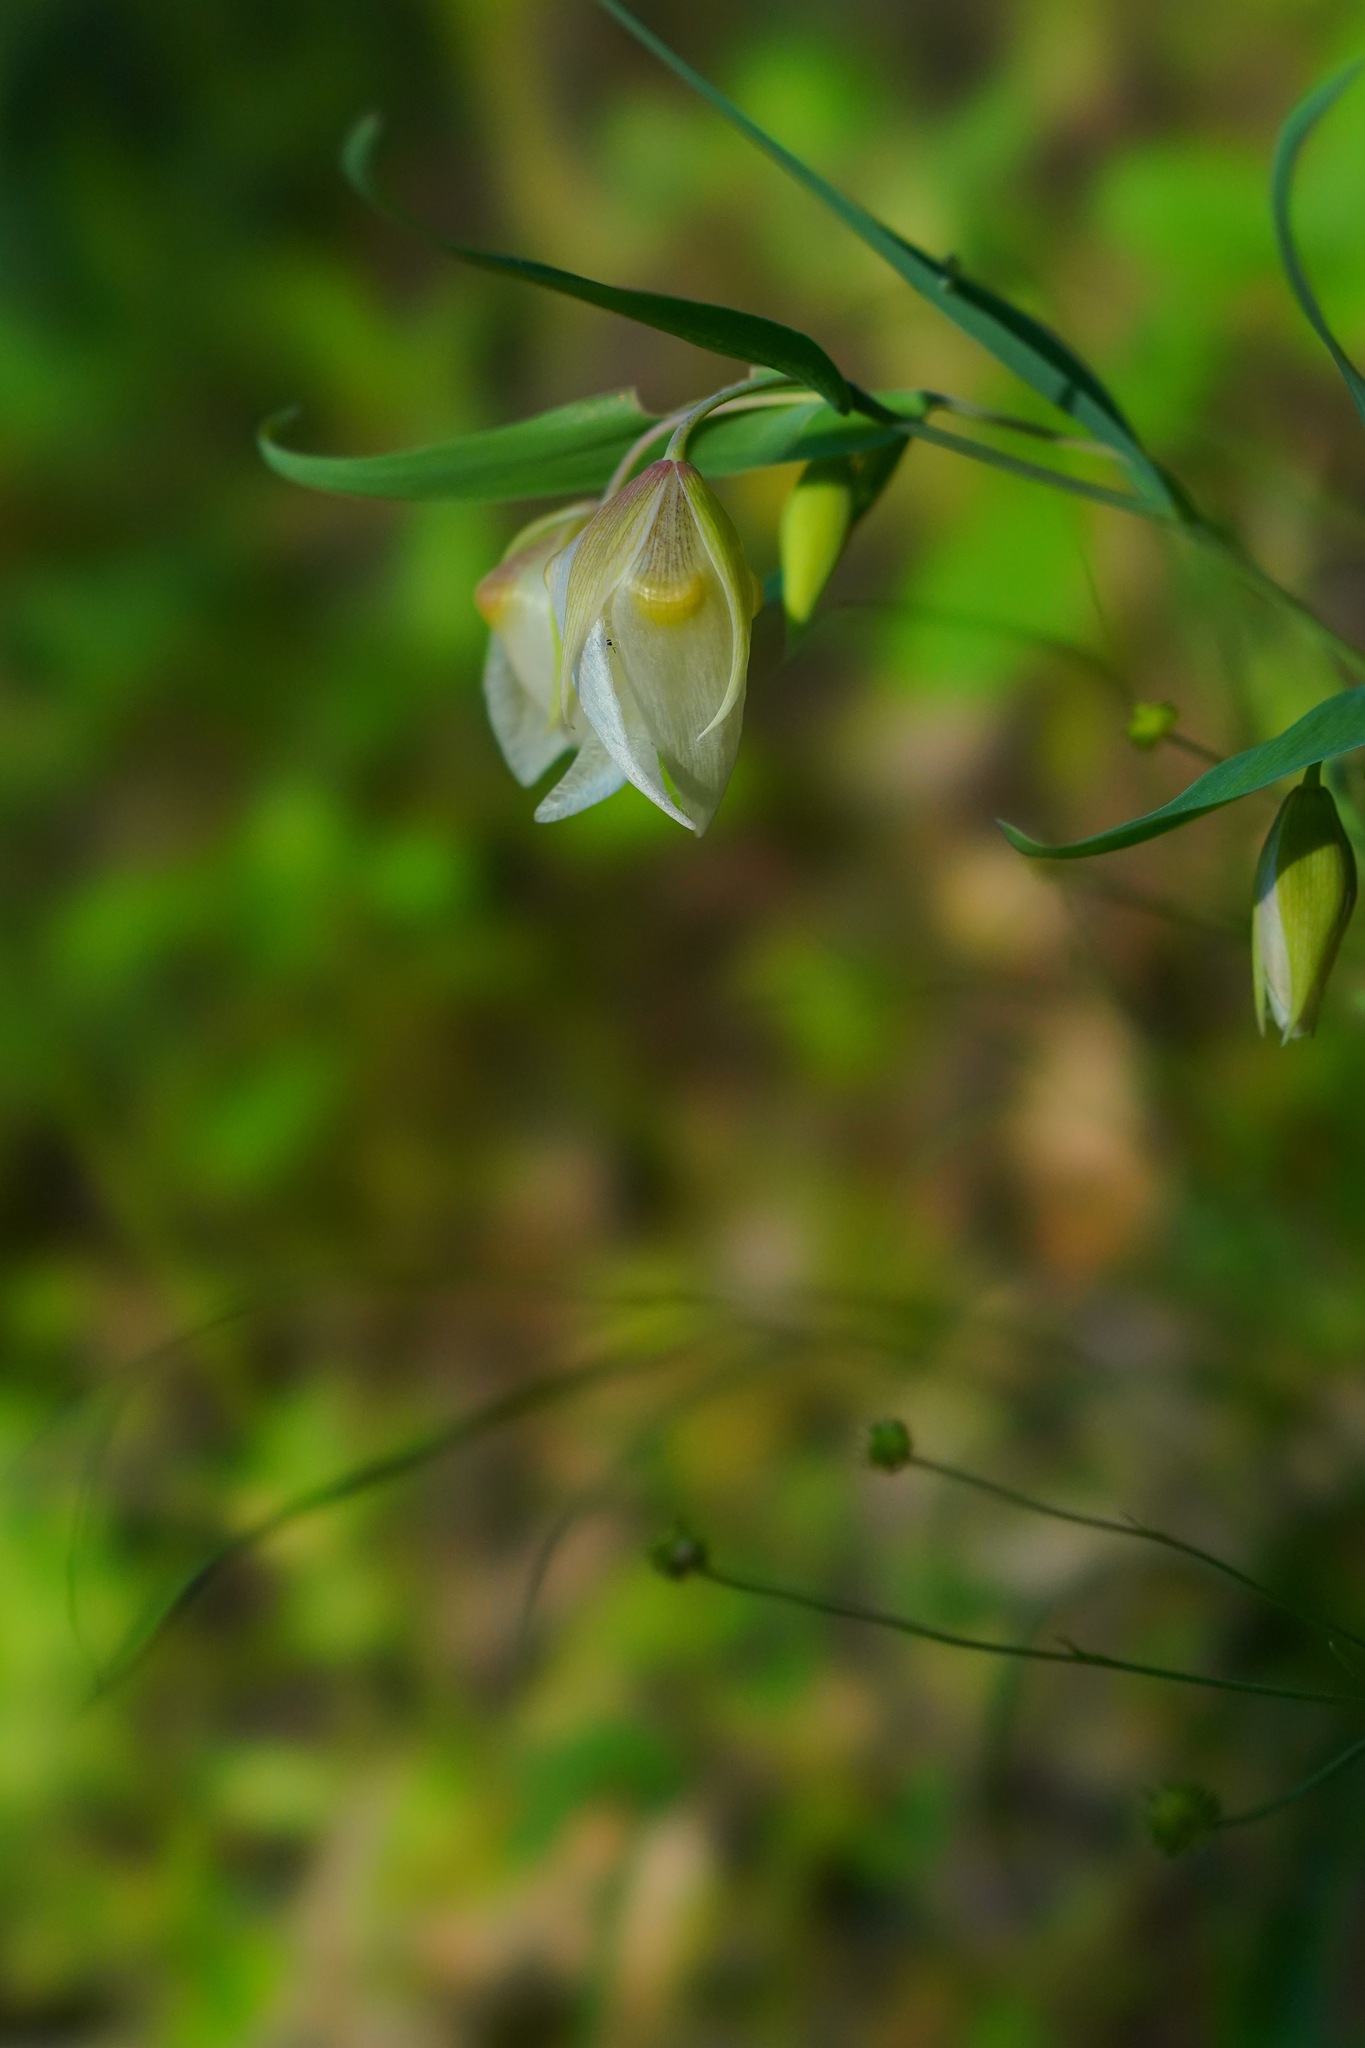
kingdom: Plantae
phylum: Tracheophyta
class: Liliopsida
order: Liliales
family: Liliaceae
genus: Calochortus
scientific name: Calochortus albus
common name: Fairy-lantern
